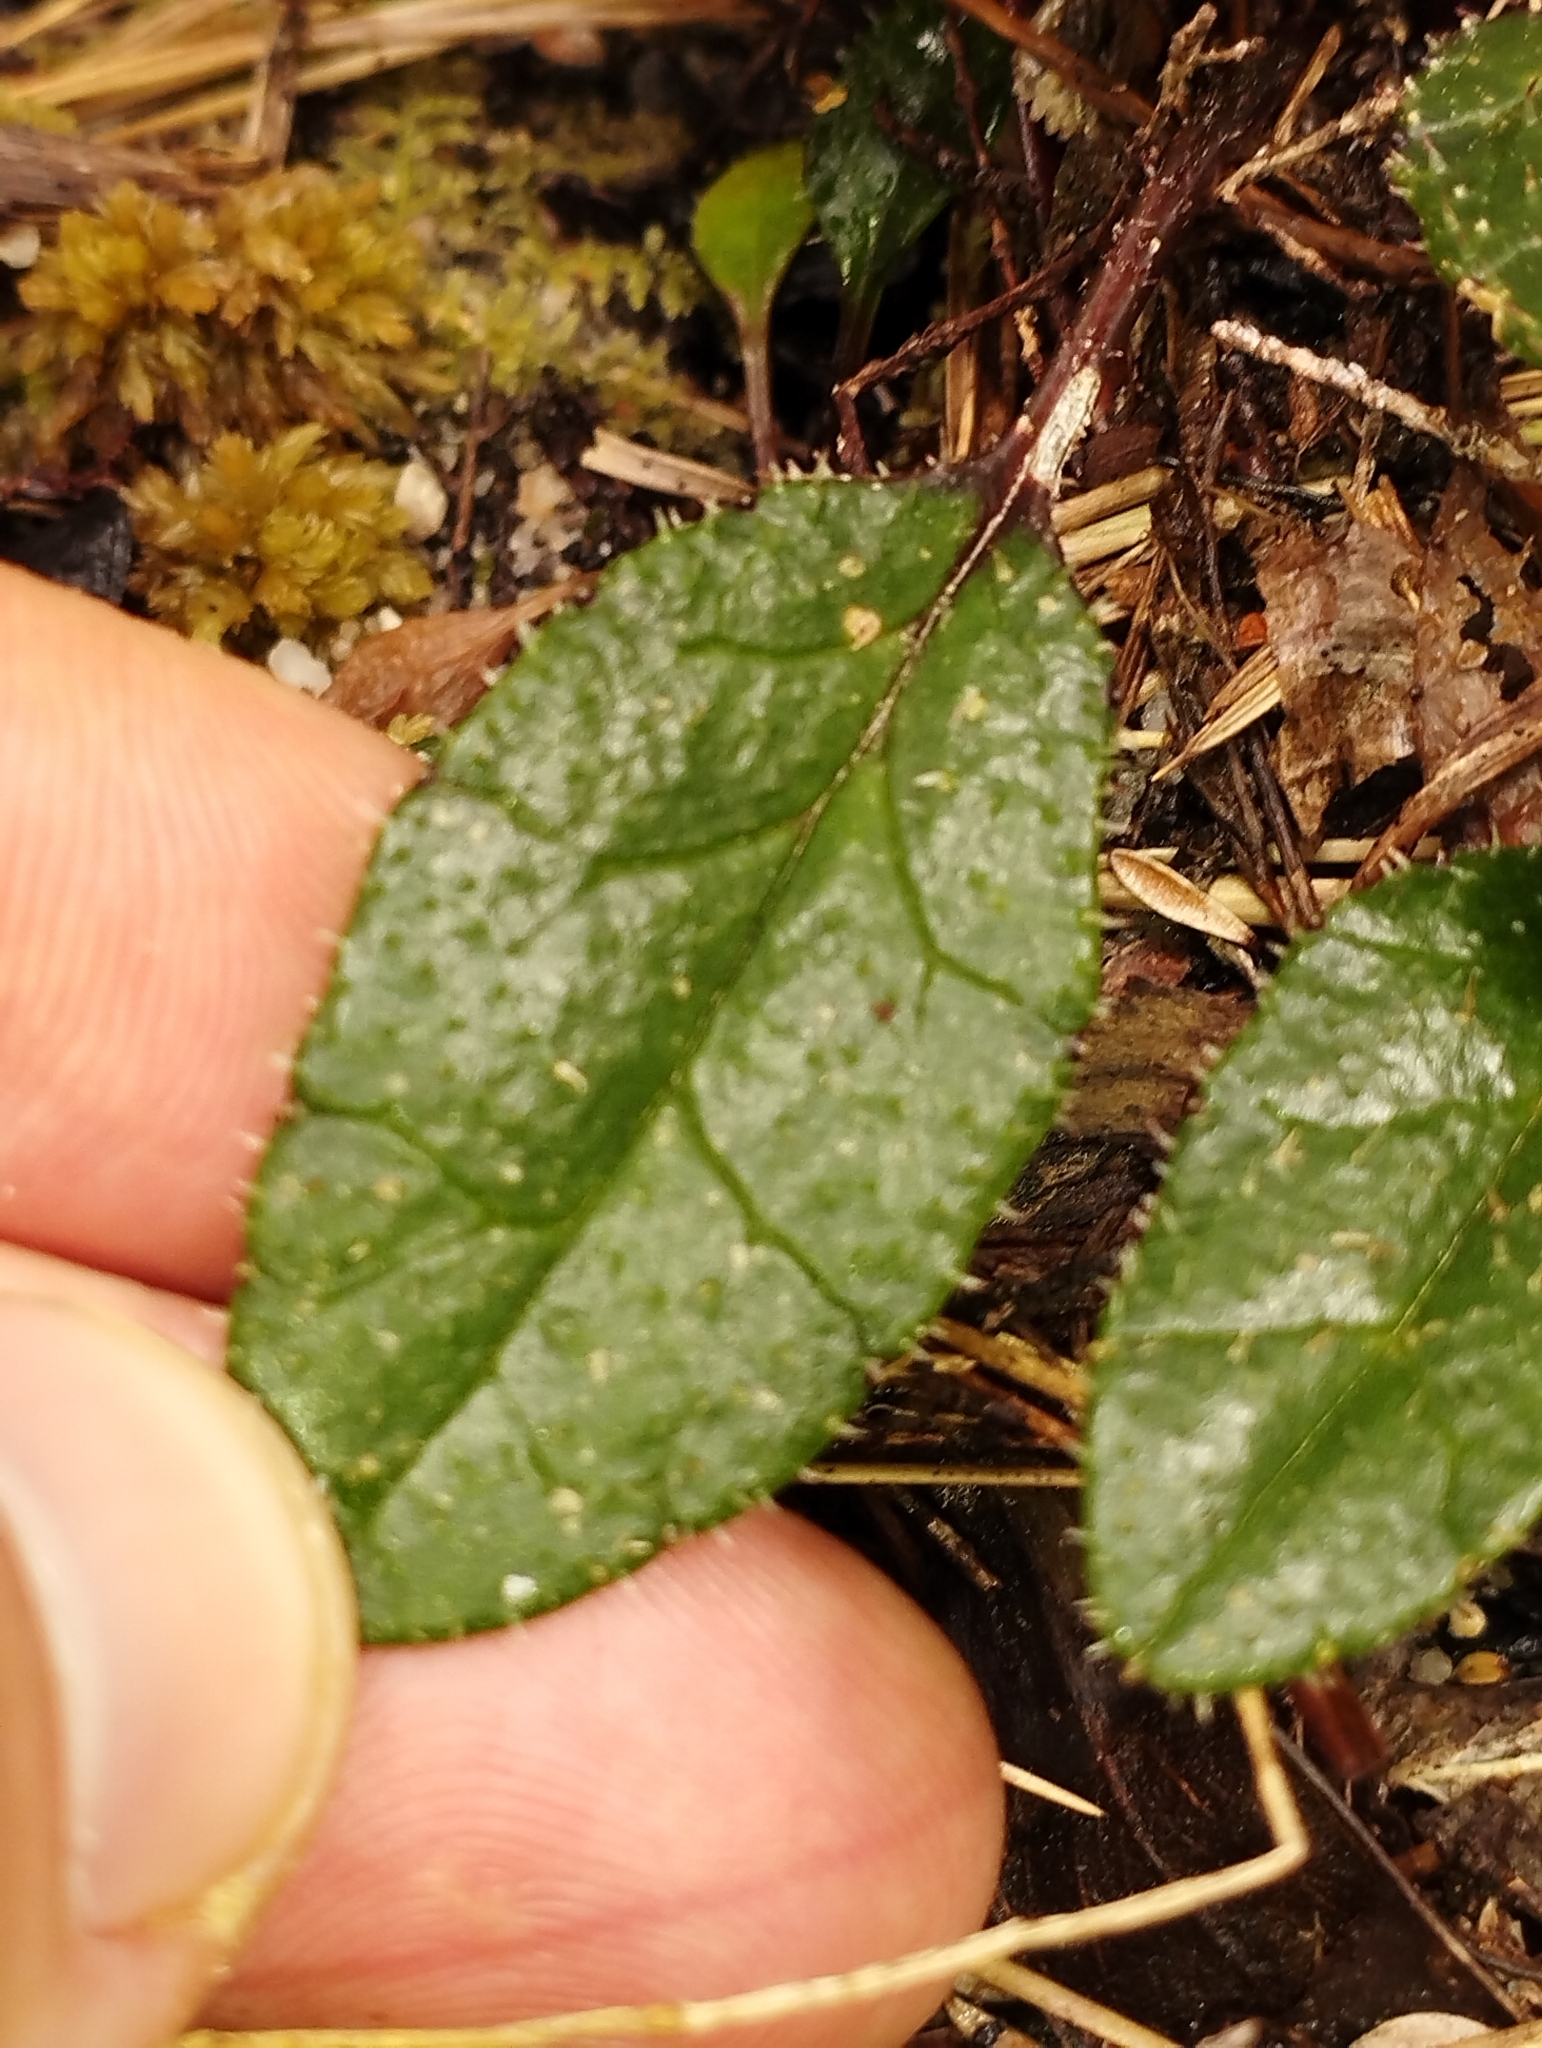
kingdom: Plantae
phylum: Tracheophyta
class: Magnoliopsida
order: Asterales
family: Asteraceae
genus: Brachyglottis
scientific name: Brachyglottis bellidioides
